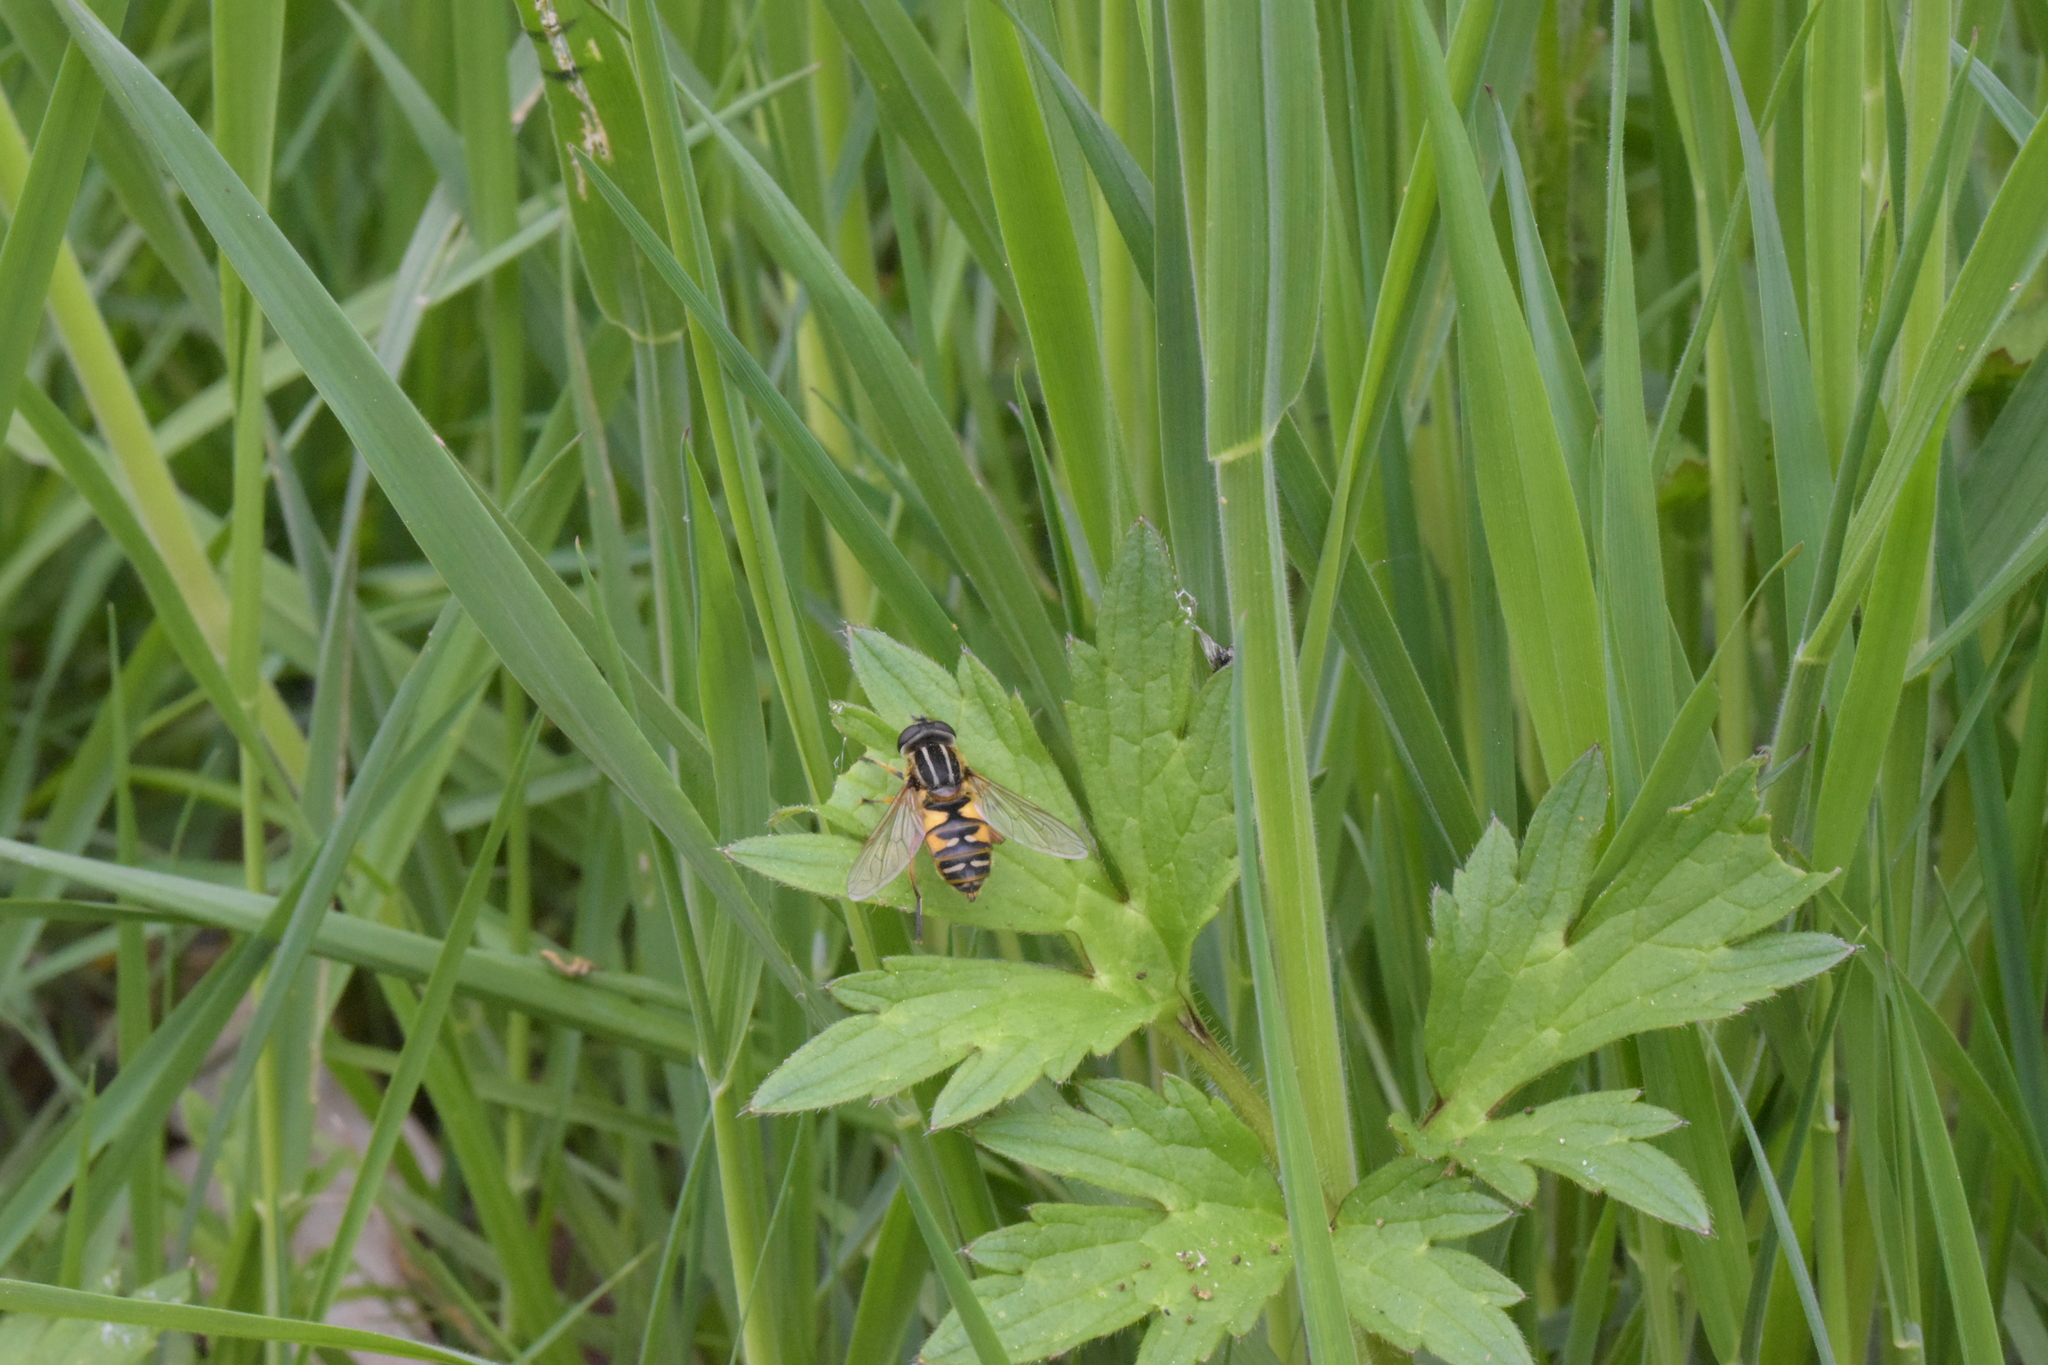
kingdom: Animalia
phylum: Arthropoda
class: Insecta
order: Diptera
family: Syrphidae
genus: Helophilus
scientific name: Helophilus pendulus
